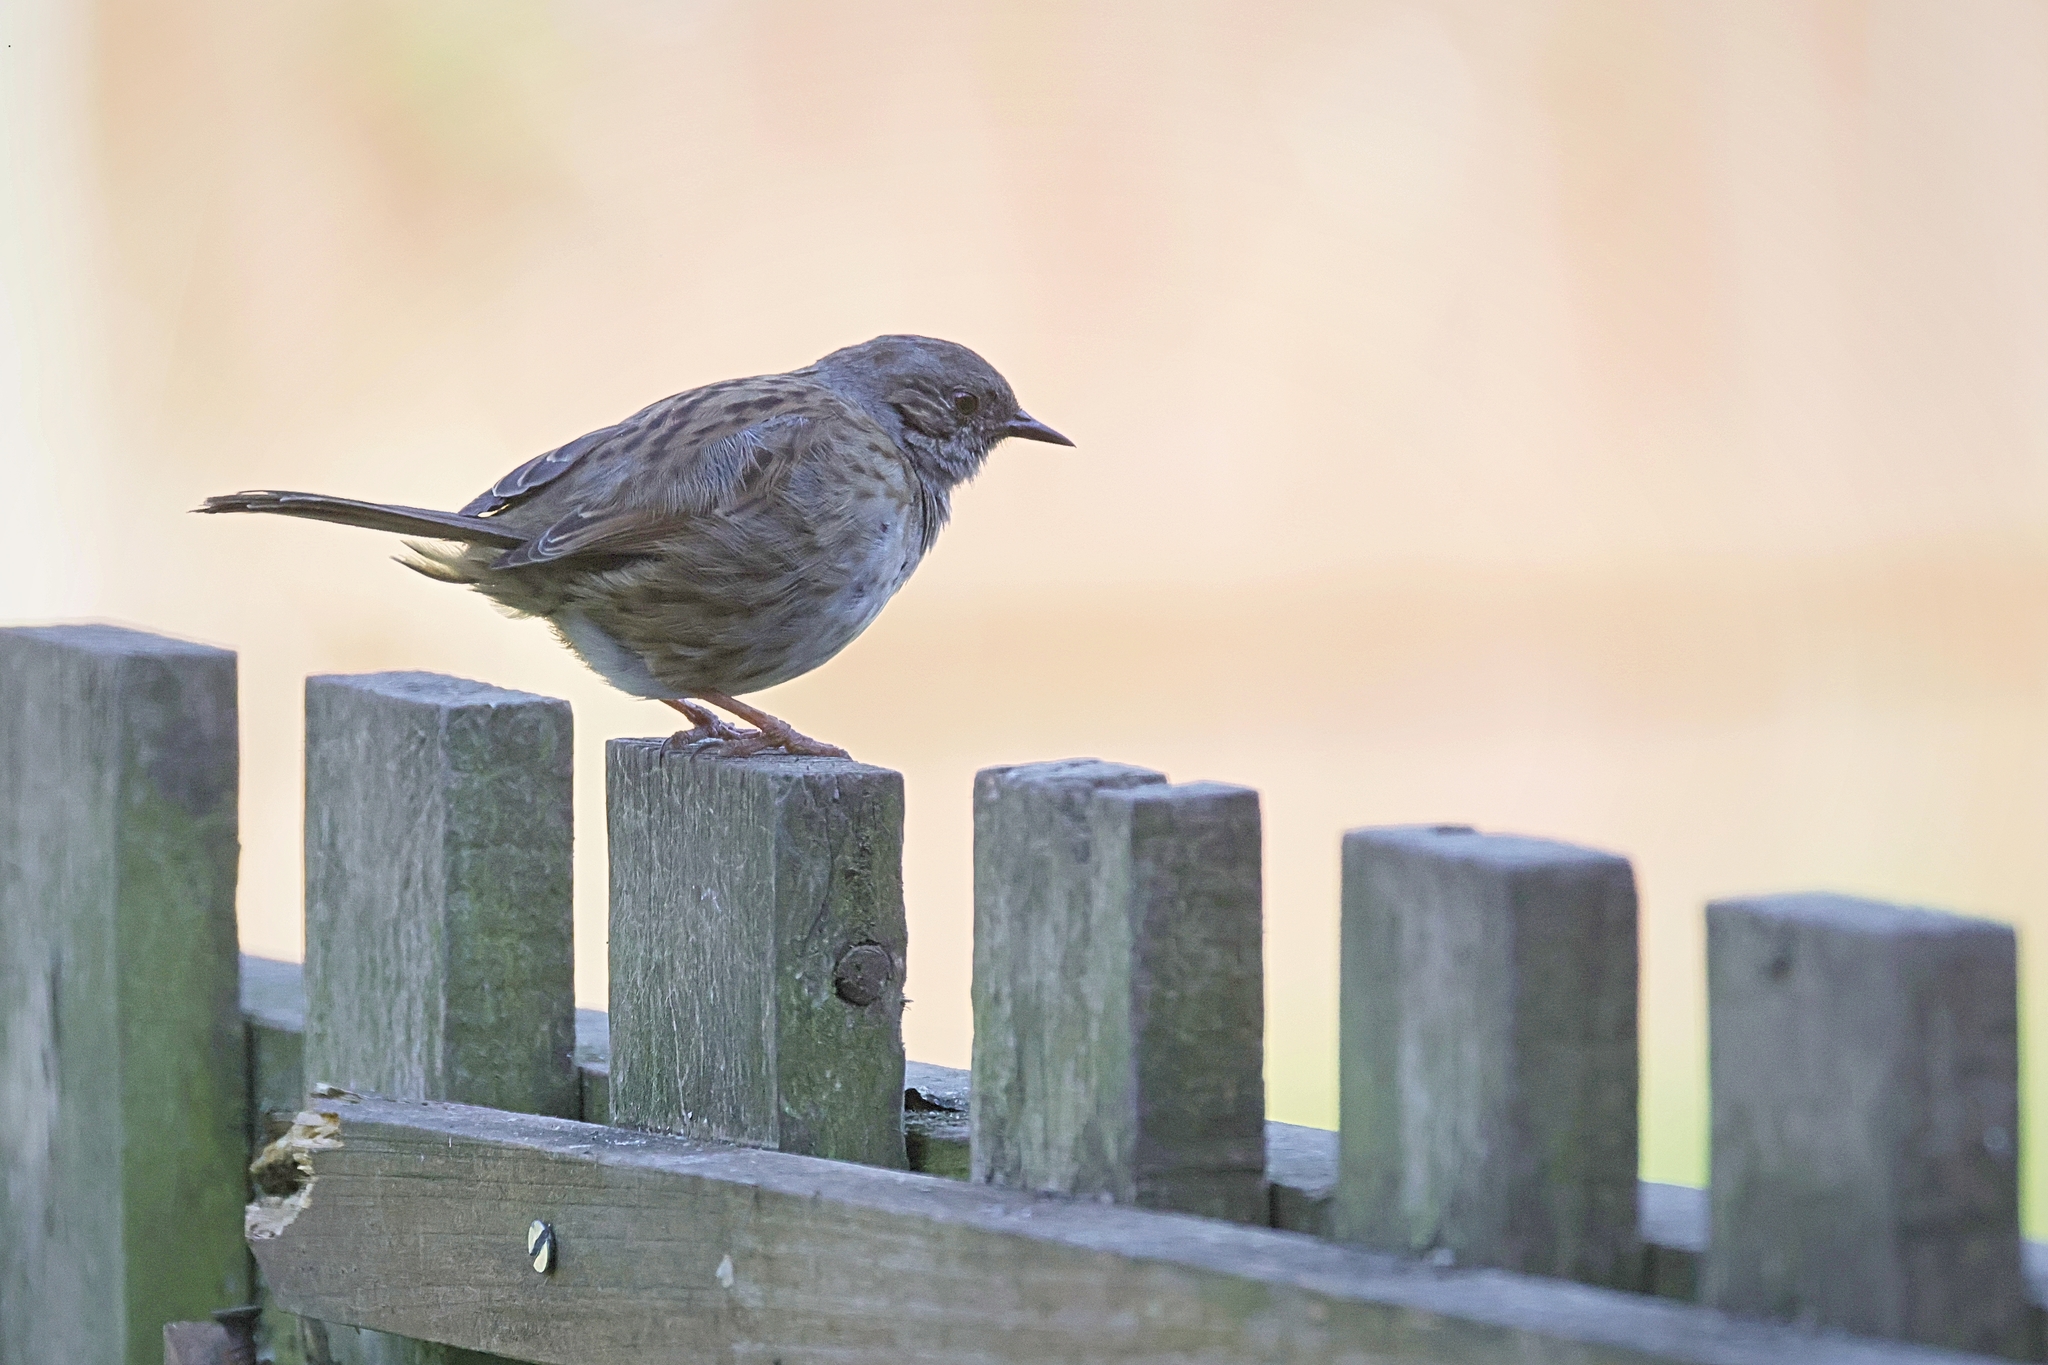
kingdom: Animalia
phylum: Chordata
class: Aves
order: Passeriformes
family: Prunellidae
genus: Prunella
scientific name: Prunella modularis
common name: Dunnock
